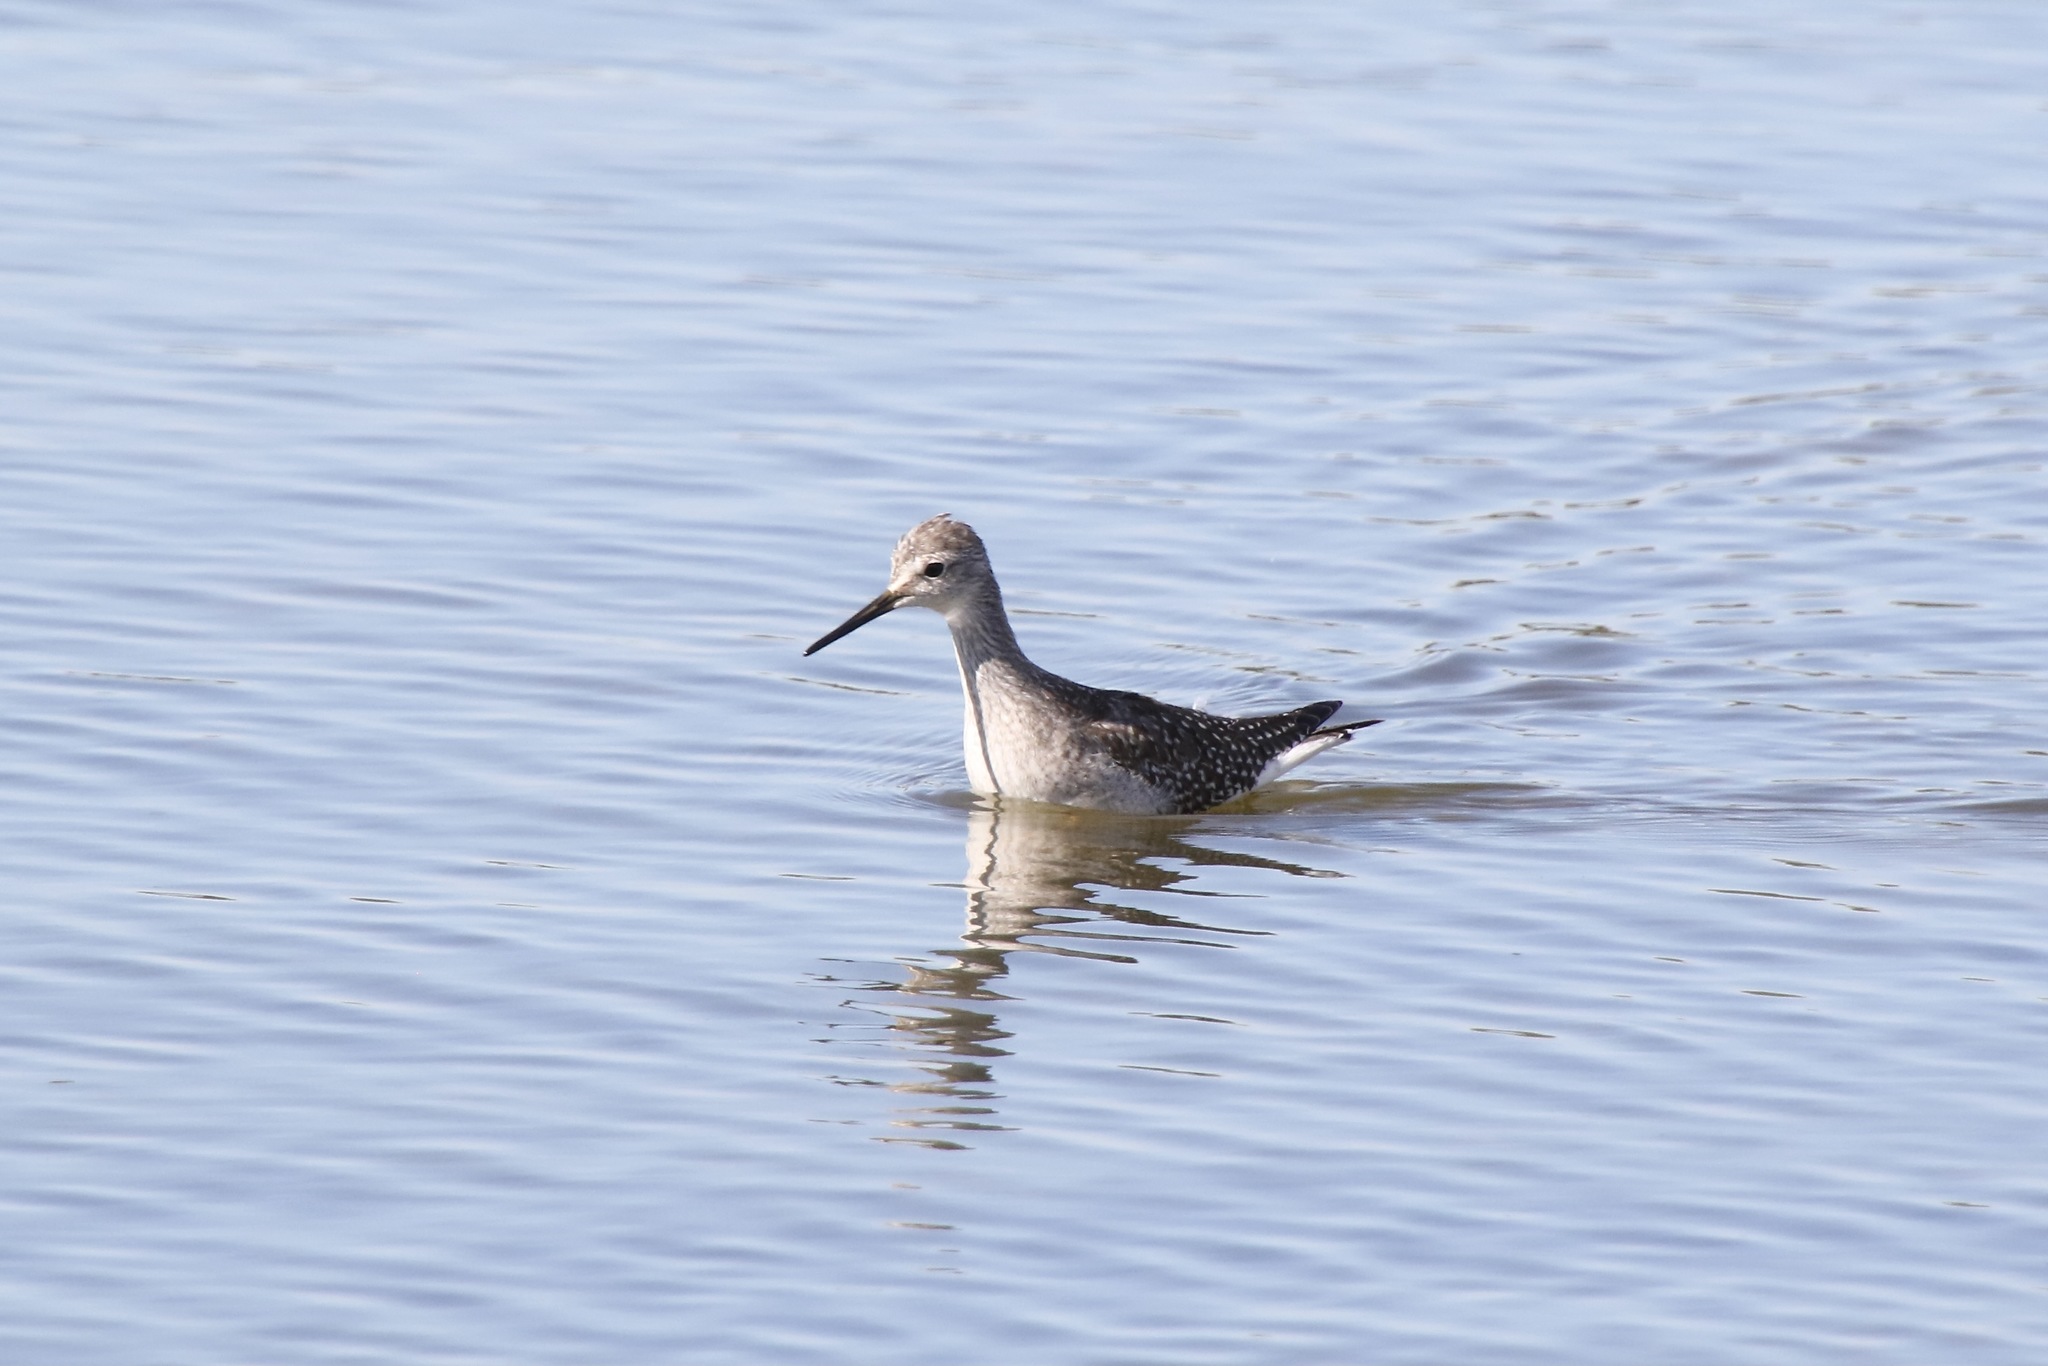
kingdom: Animalia
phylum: Chordata
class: Aves
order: Charadriiformes
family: Scolopacidae
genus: Tringa
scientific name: Tringa flavipes
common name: Lesser yellowlegs
